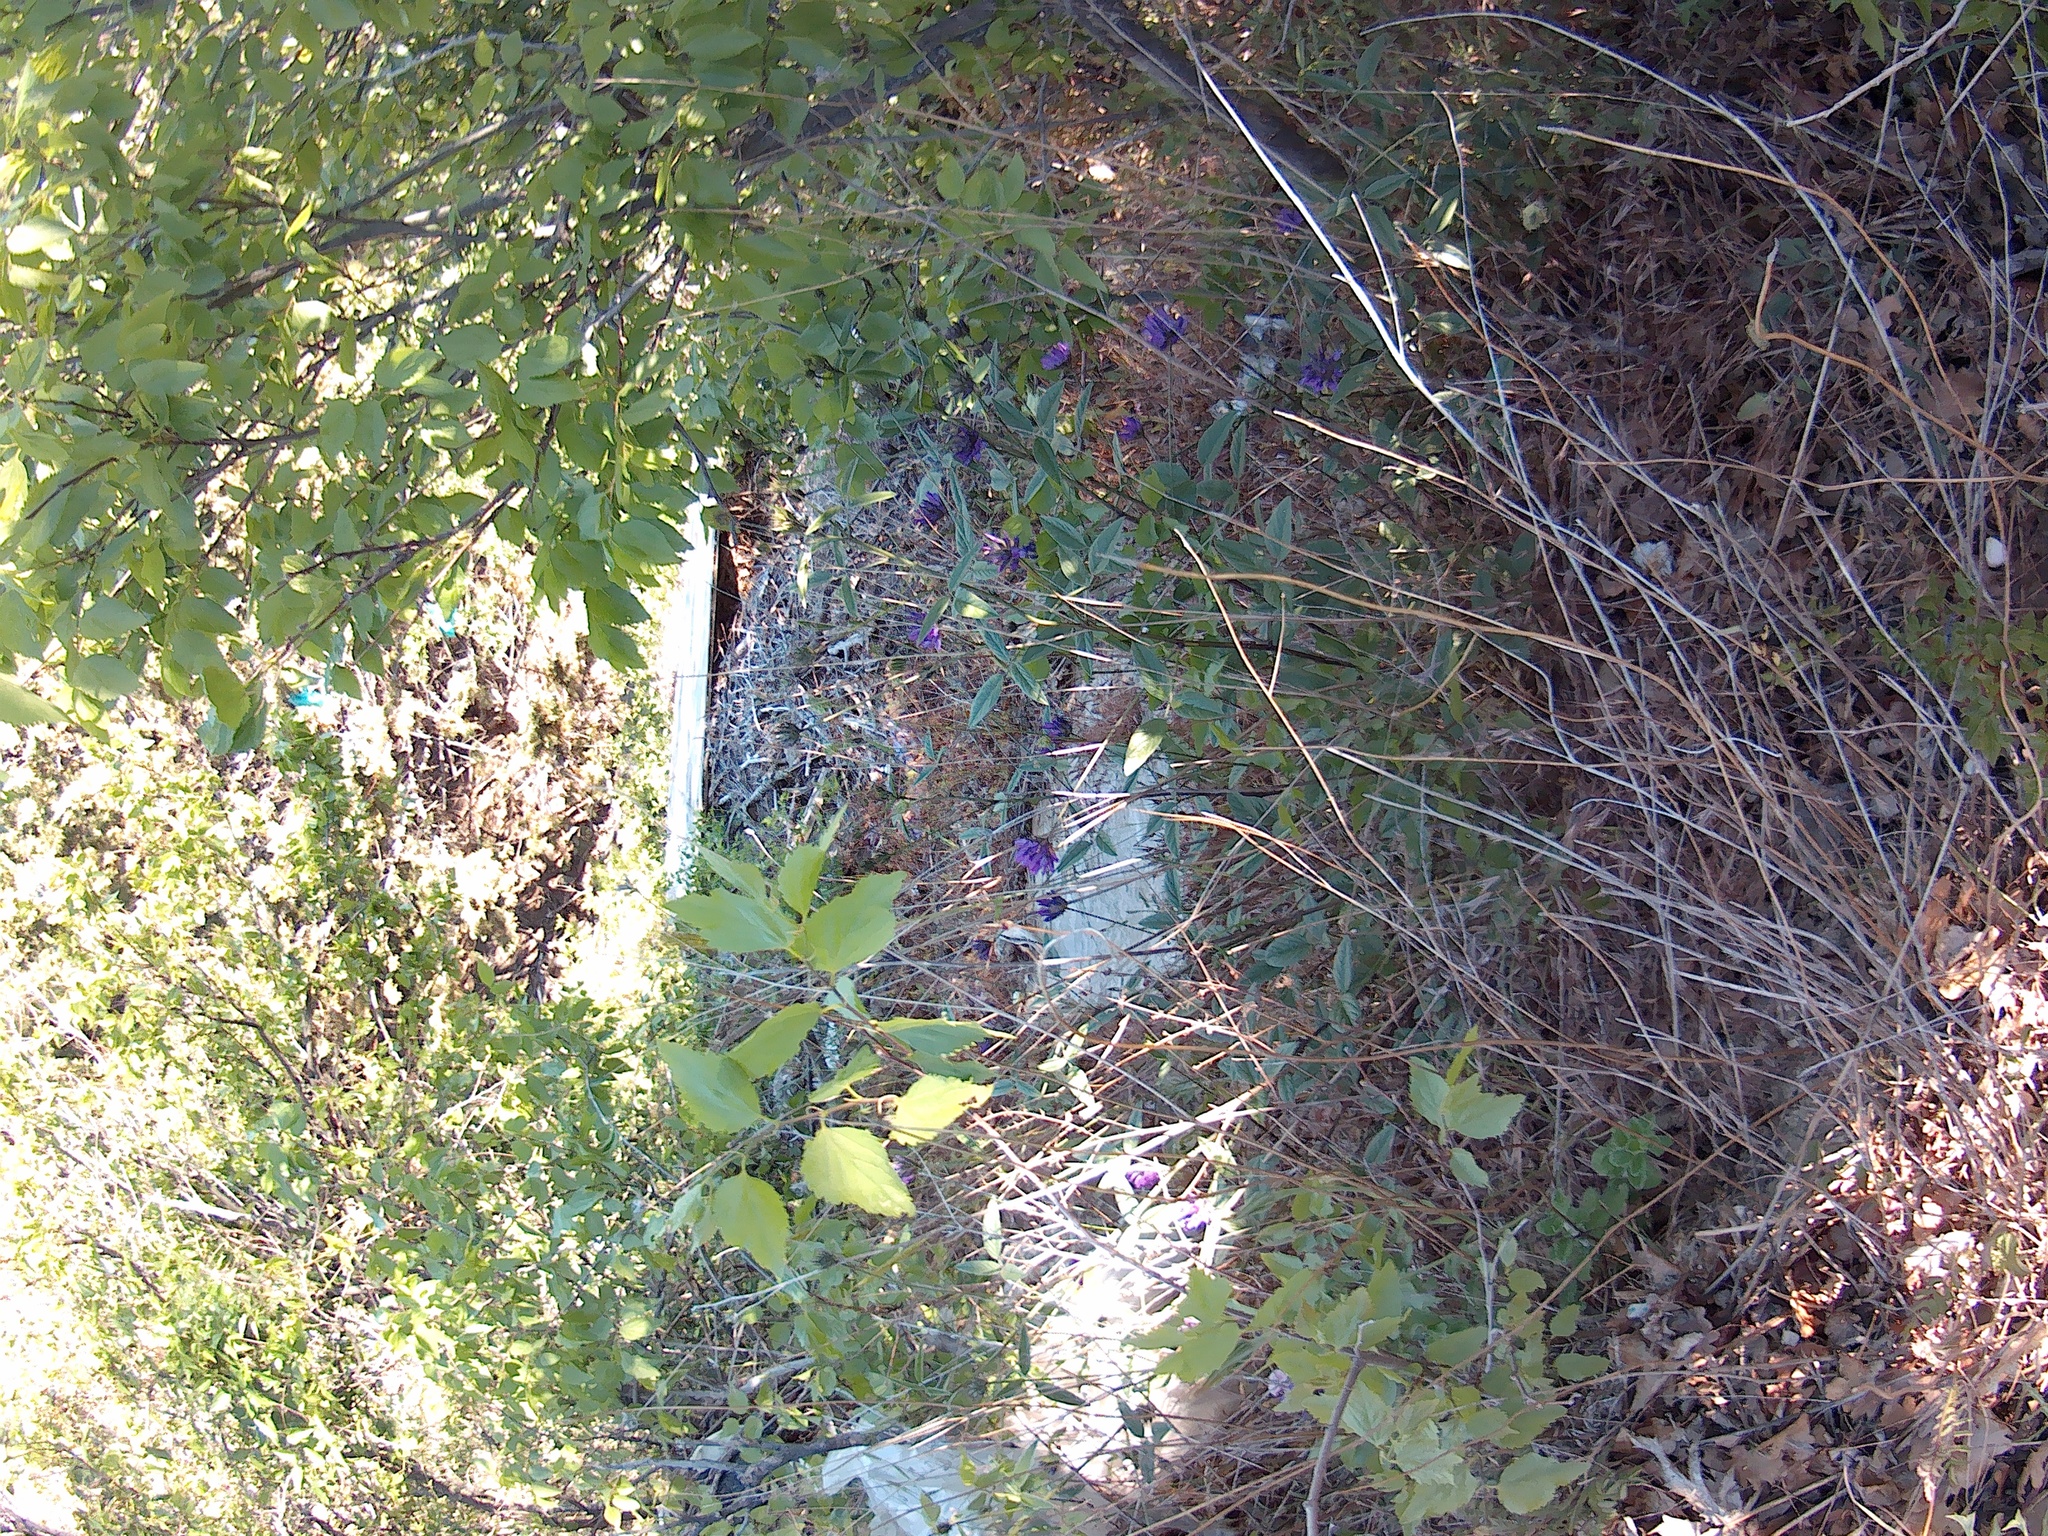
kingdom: Plantae
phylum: Tracheophyta
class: Magnoliopsida
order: Fabales
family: Fabaceae
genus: Bituminaria
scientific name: Bituminaria bituminosa
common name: Arabian pea
